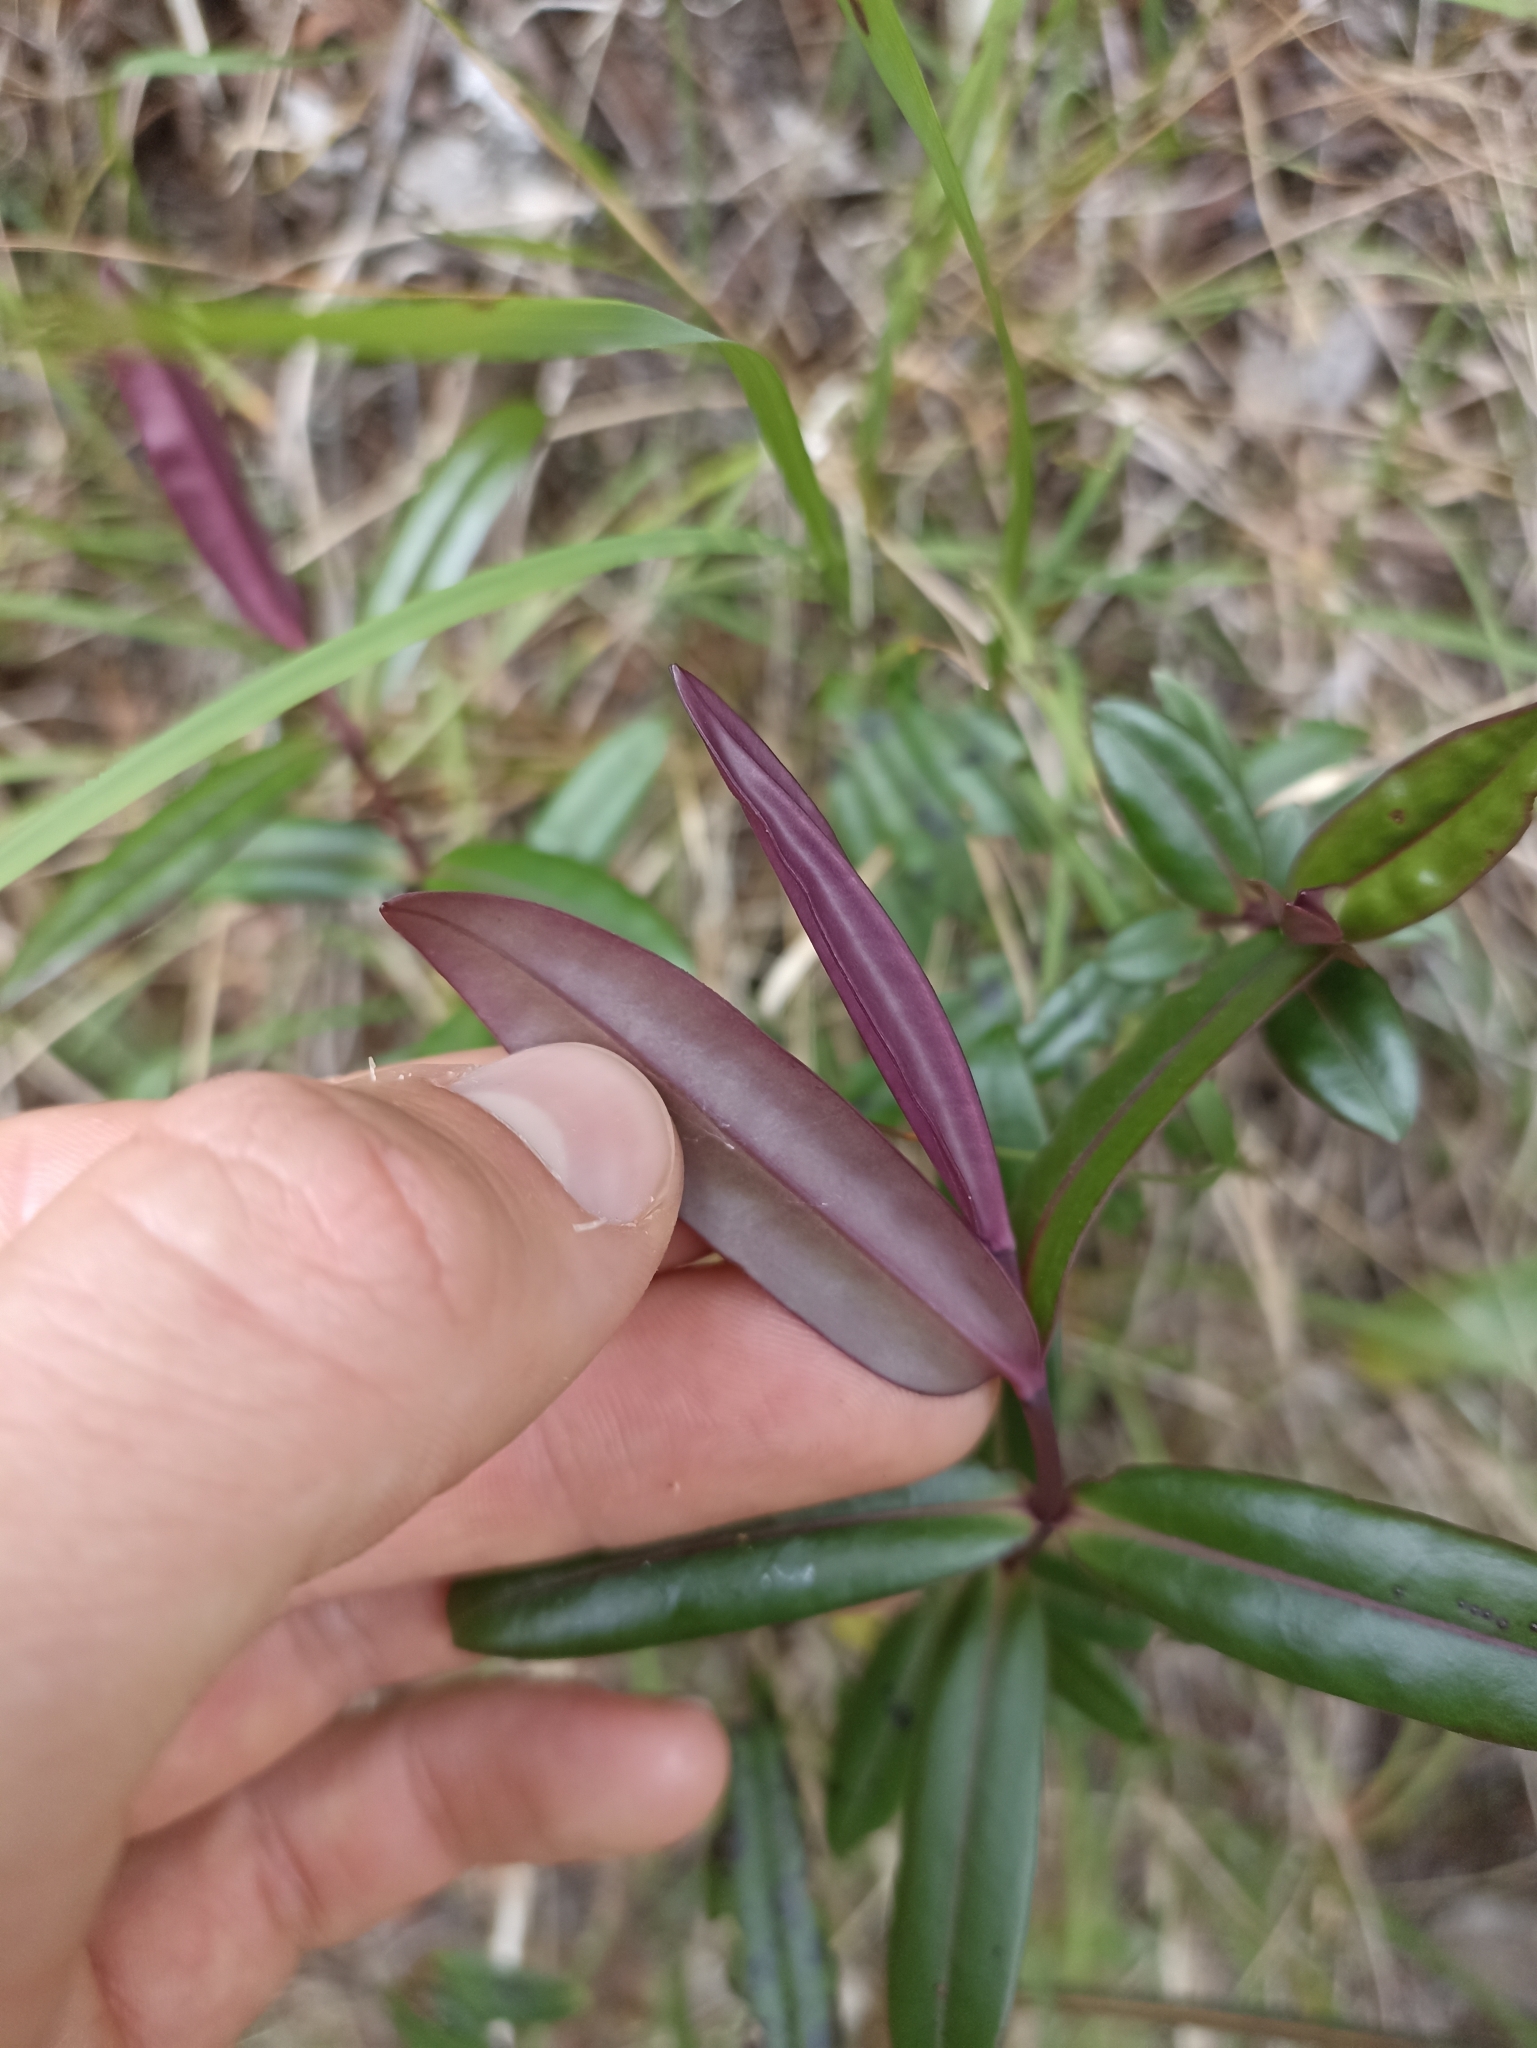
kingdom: Plantae
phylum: Tracheophyta
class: Magnoliopsida
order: Lamiales
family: Plantaginaceae
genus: Veronica
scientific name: Veronica bishopiana
